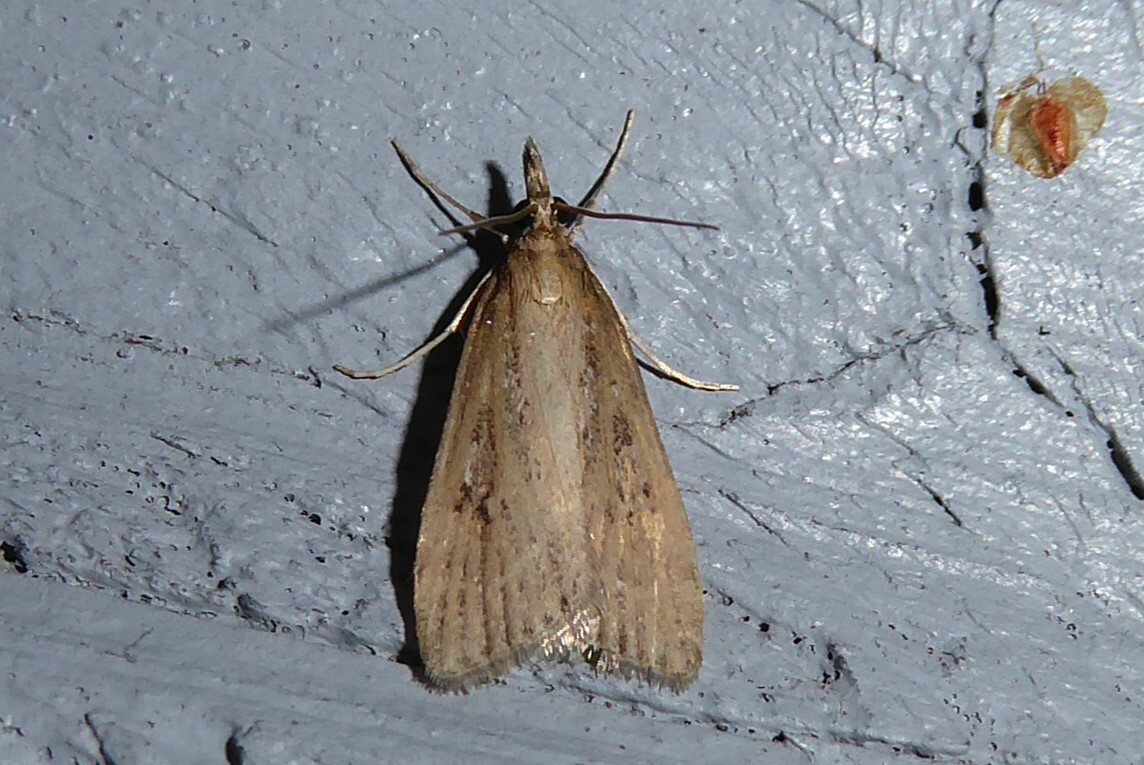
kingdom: Animalia
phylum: Arthropoda
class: Insecta
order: Lepidoptera
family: Crambidae
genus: Eudonia
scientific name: Eudonia octophora
